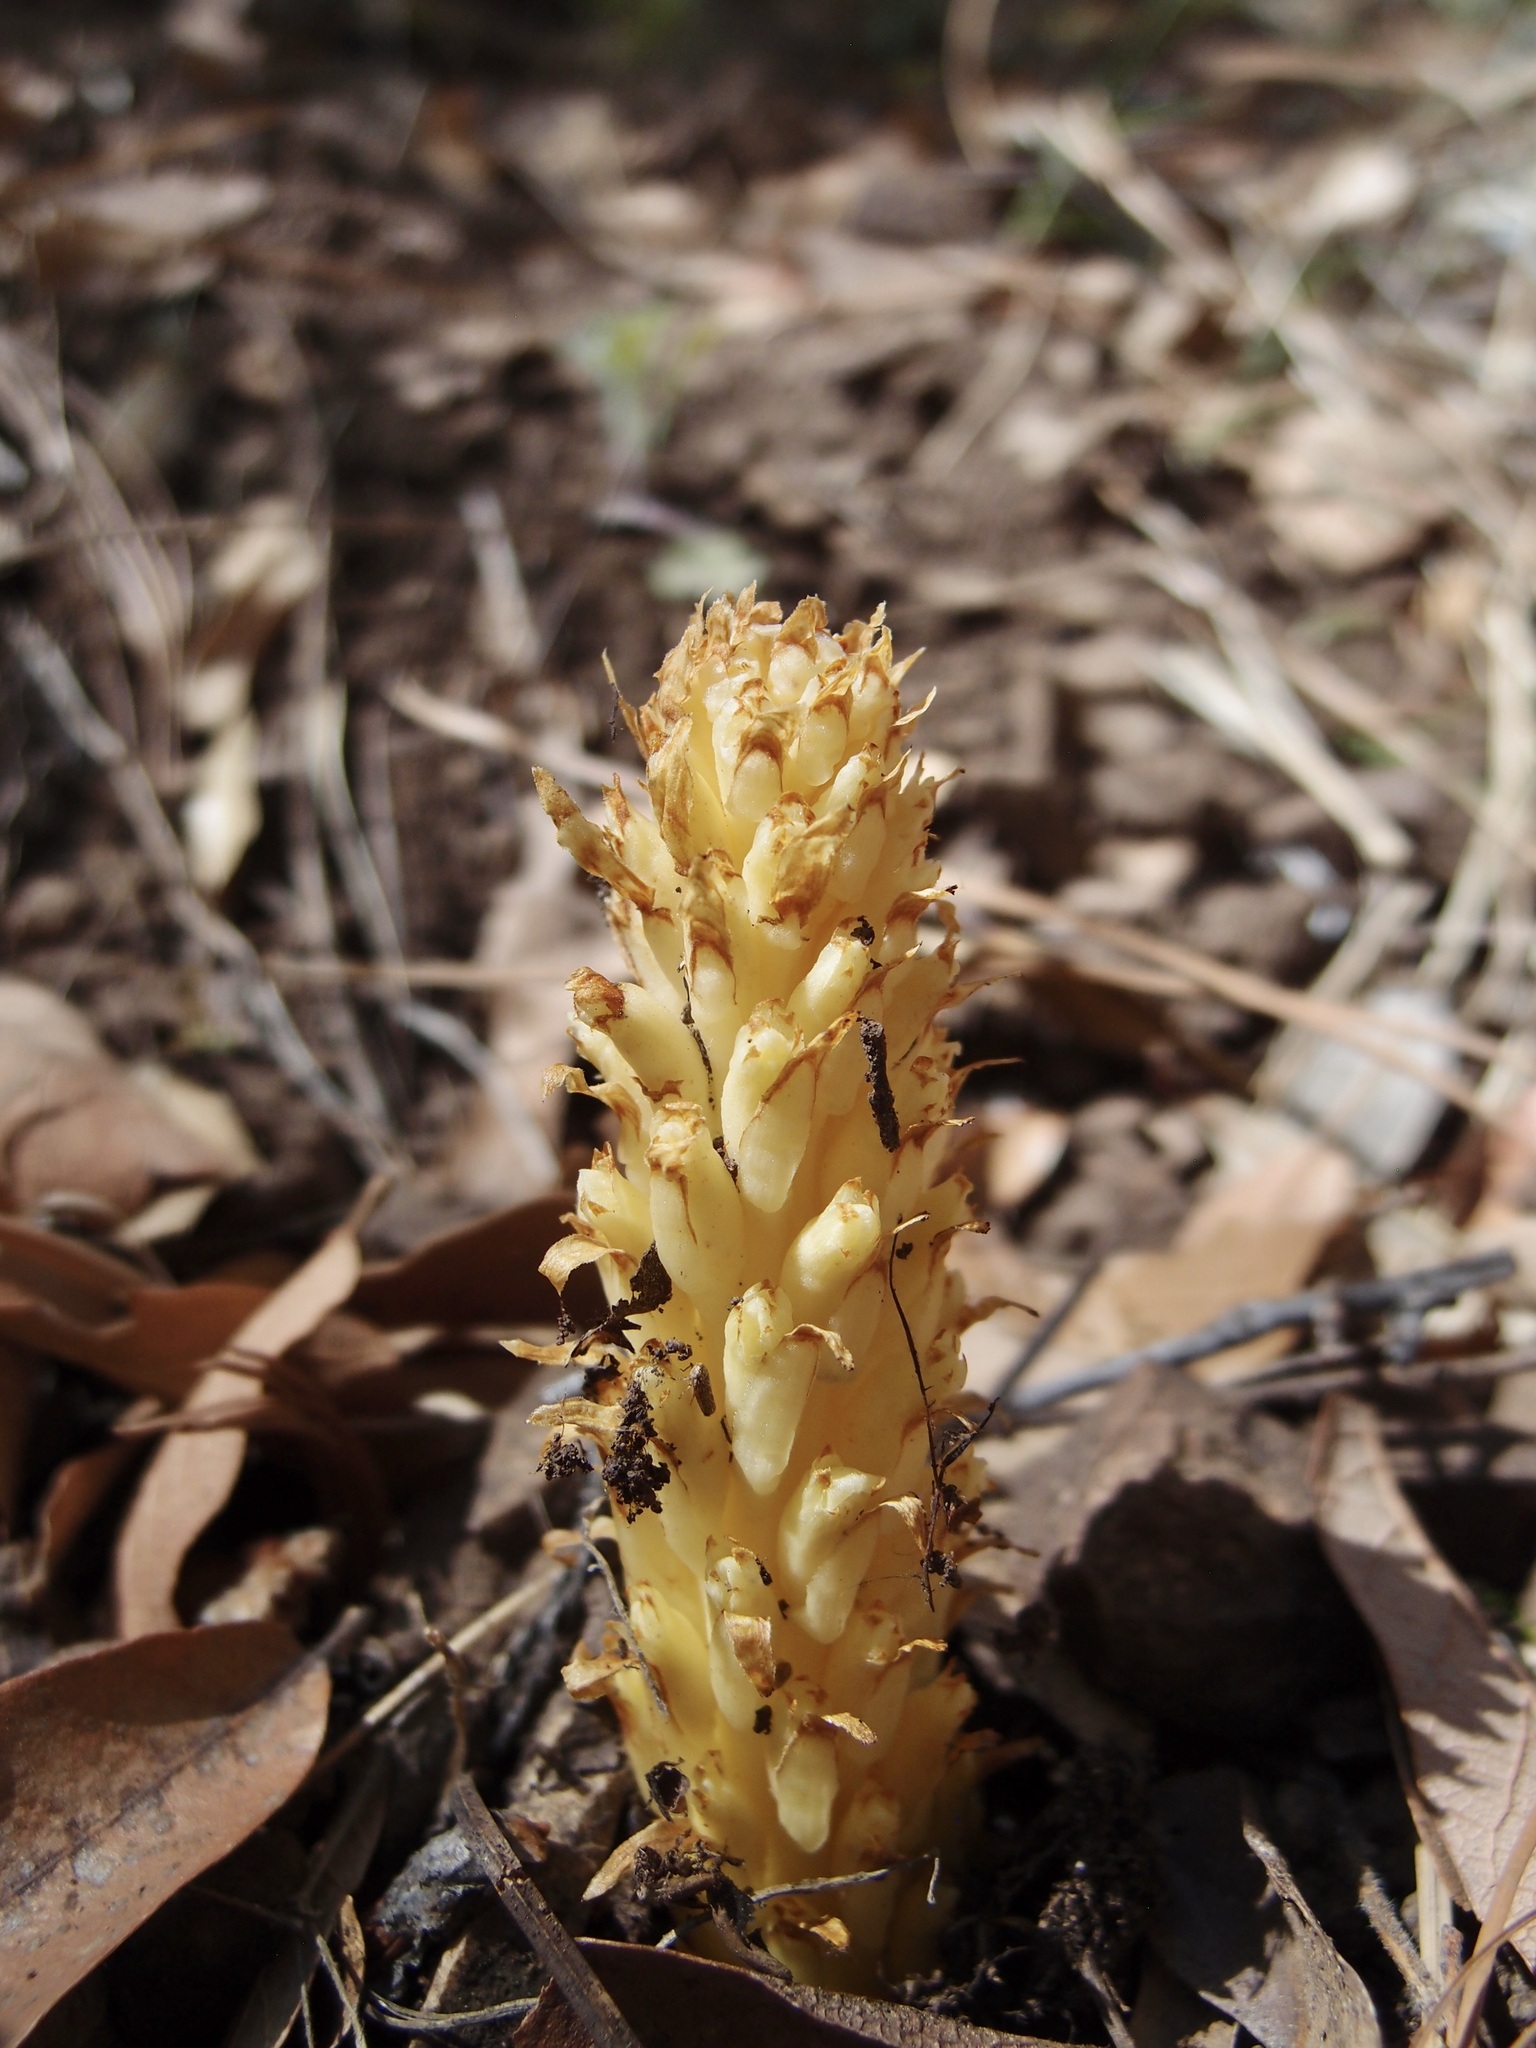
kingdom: Plantae
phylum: Tracheophyta
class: Magnoliopsida
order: Lamiales
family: Orobanchaceae
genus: Conopholis
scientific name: Conopholis alpina
